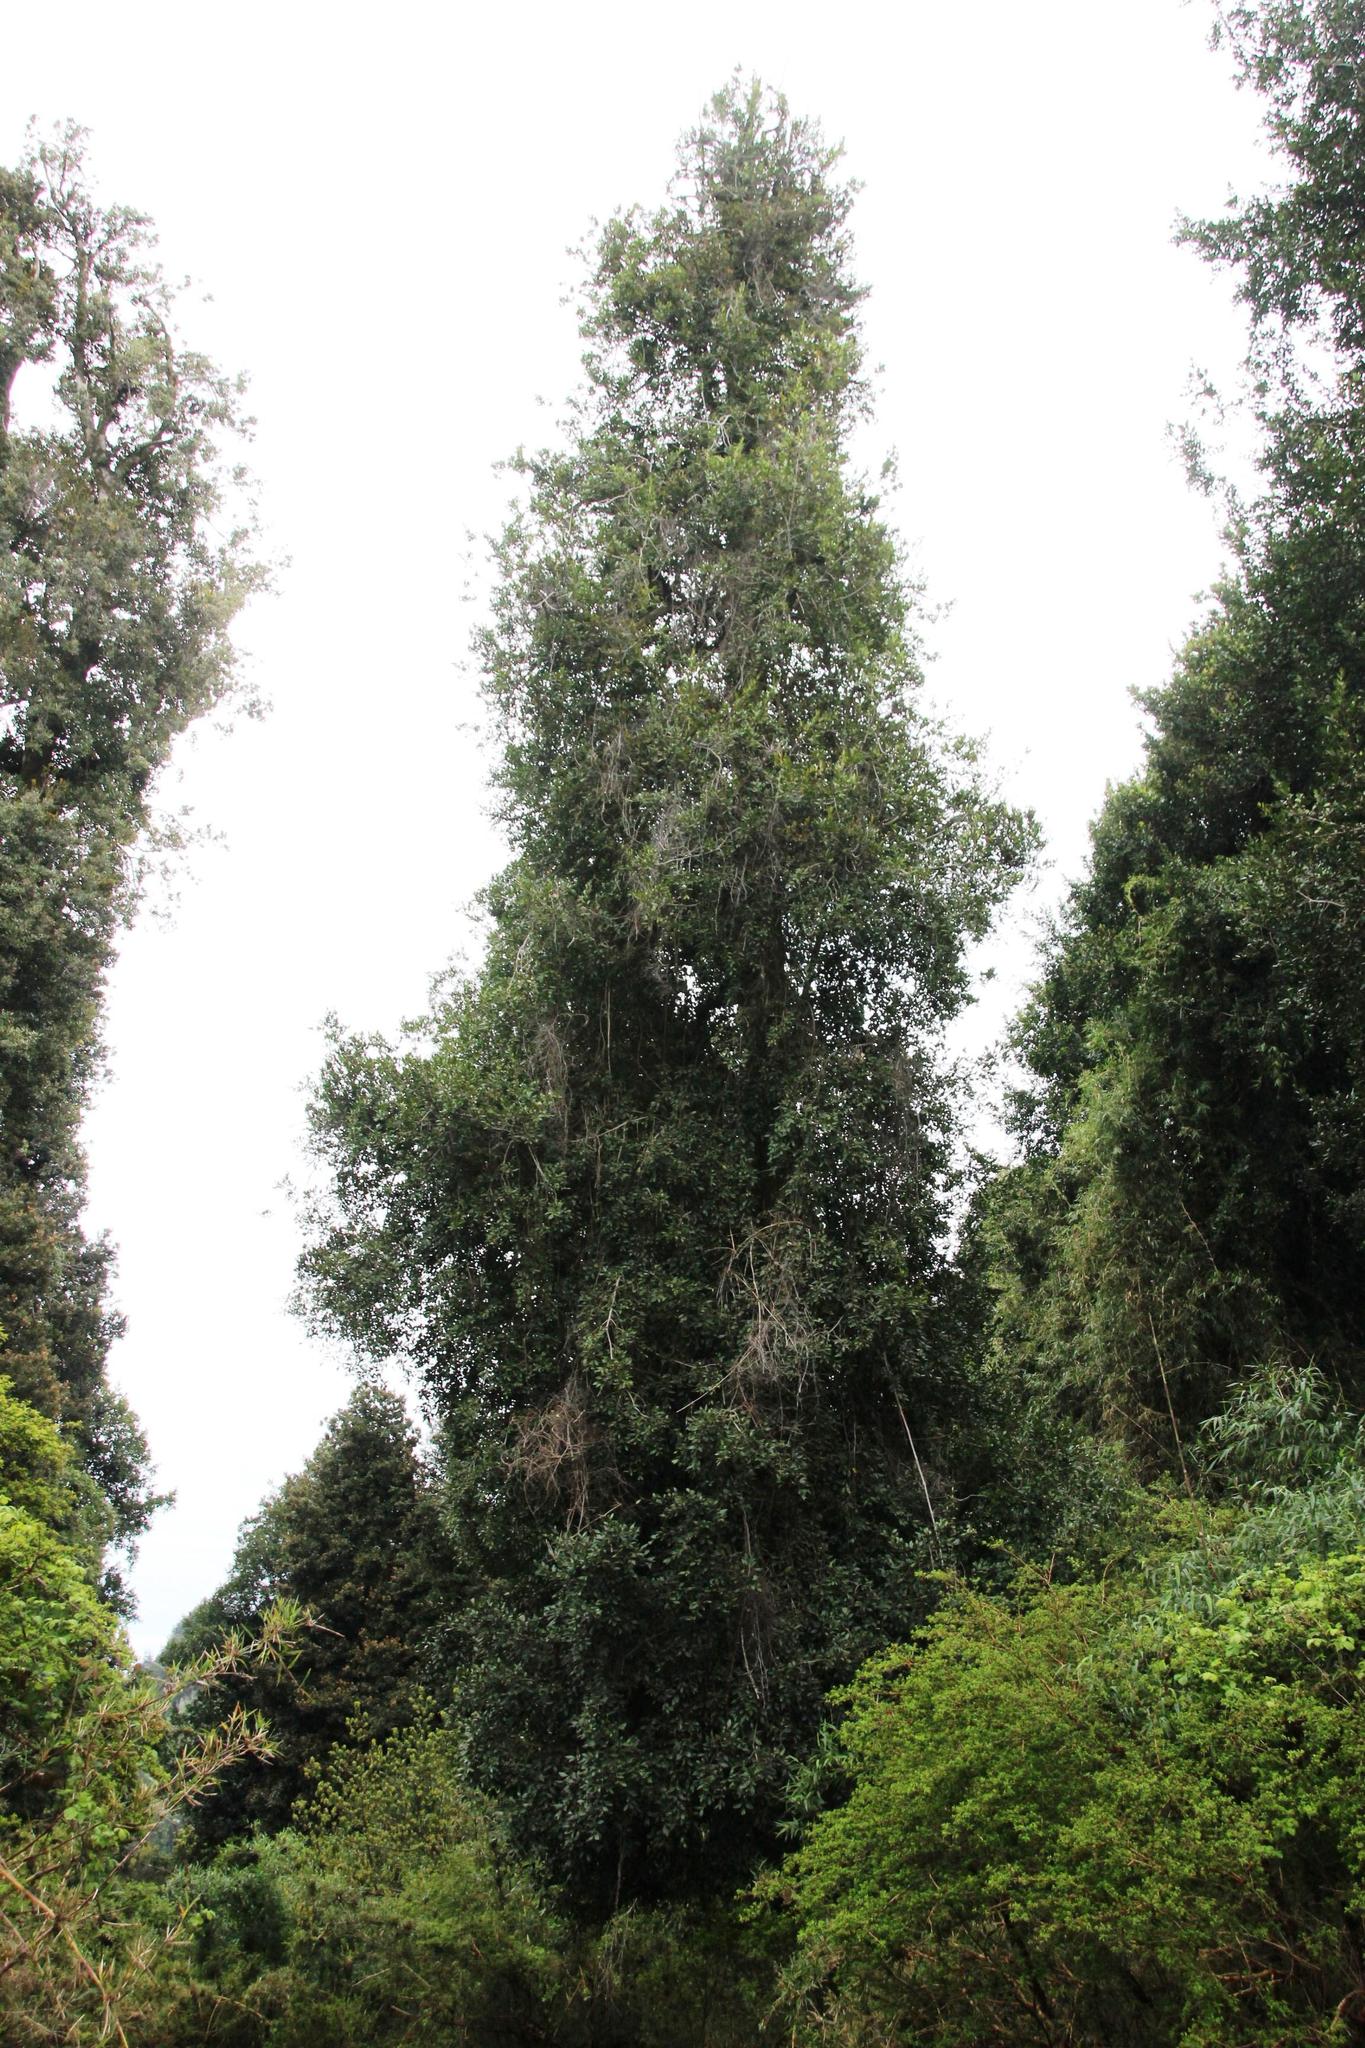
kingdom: Plantae
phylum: Tracheophyta
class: Magnoliopsida
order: Laurales
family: Atherospermataceae
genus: Laureliopsis
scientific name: Laureliopsis philippiana
